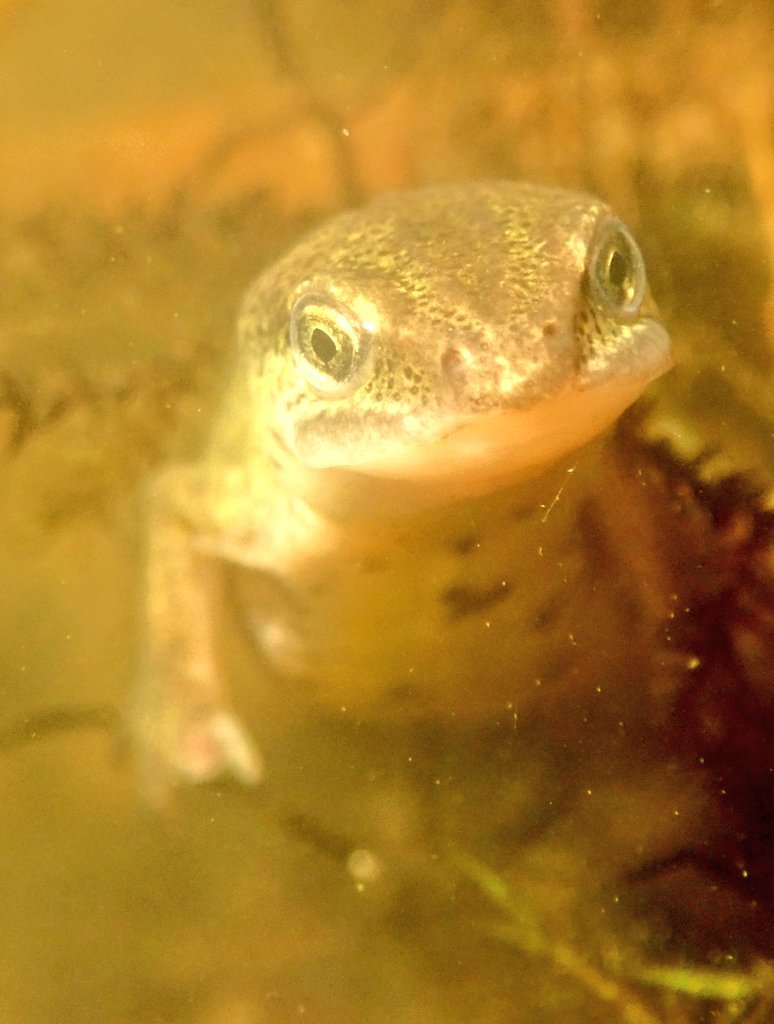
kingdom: Animalia
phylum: Chordata
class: Amphibia
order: Caudata
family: Salamandridae
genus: Lissotriton
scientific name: Lissotriton helveticus
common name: Palmate newt
